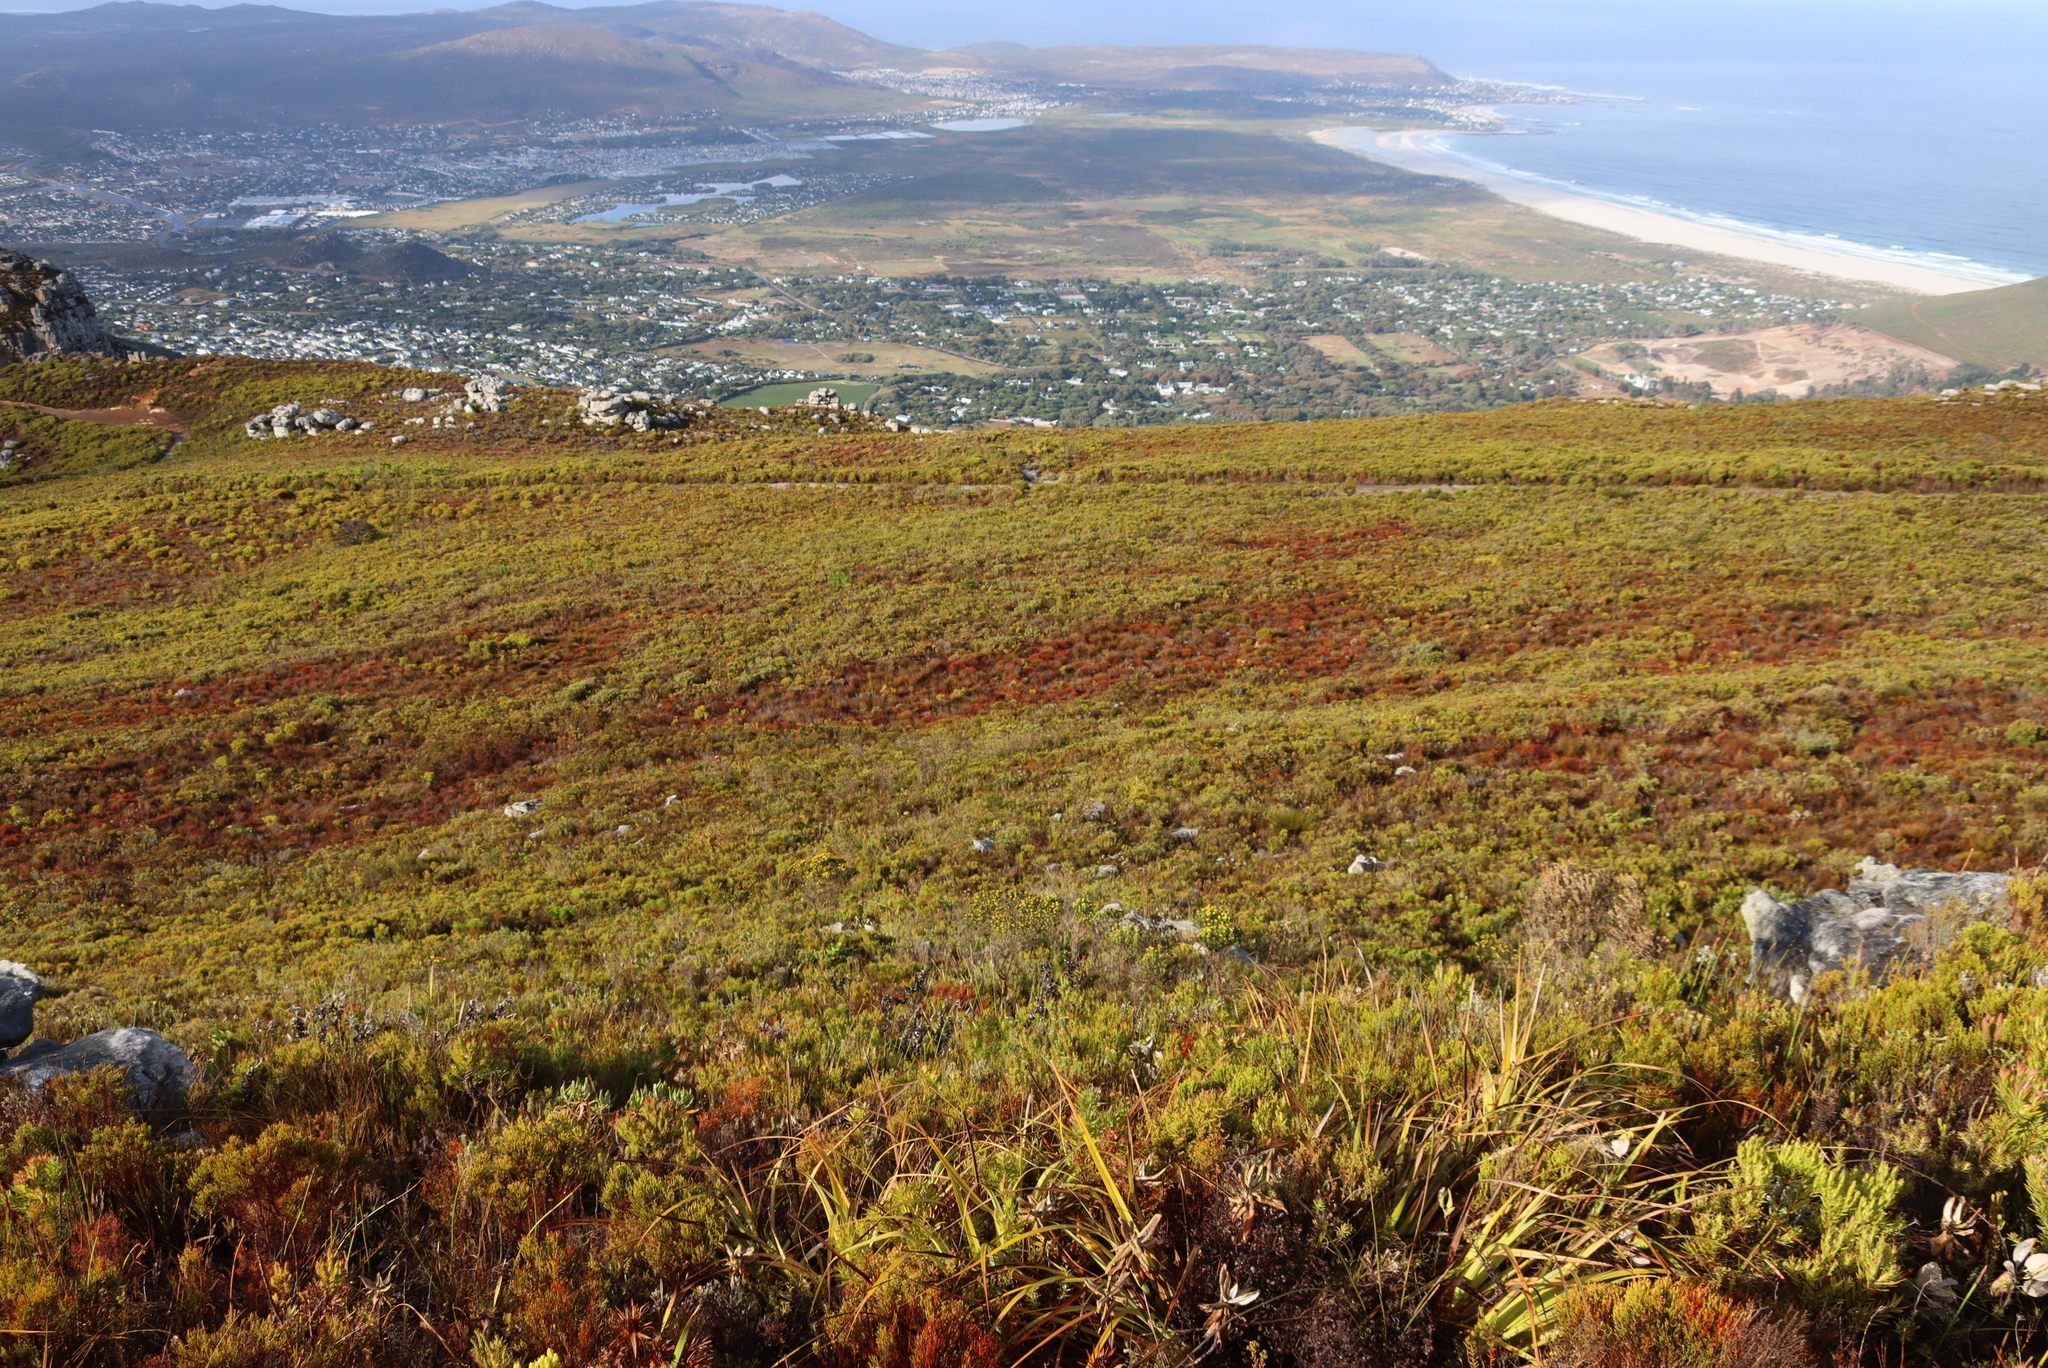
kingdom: Plantae
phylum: Tracheophyta
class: Magnoliopsida
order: Fabales
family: Fabaceae
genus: Aspalathus
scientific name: Aspalathus capitata
